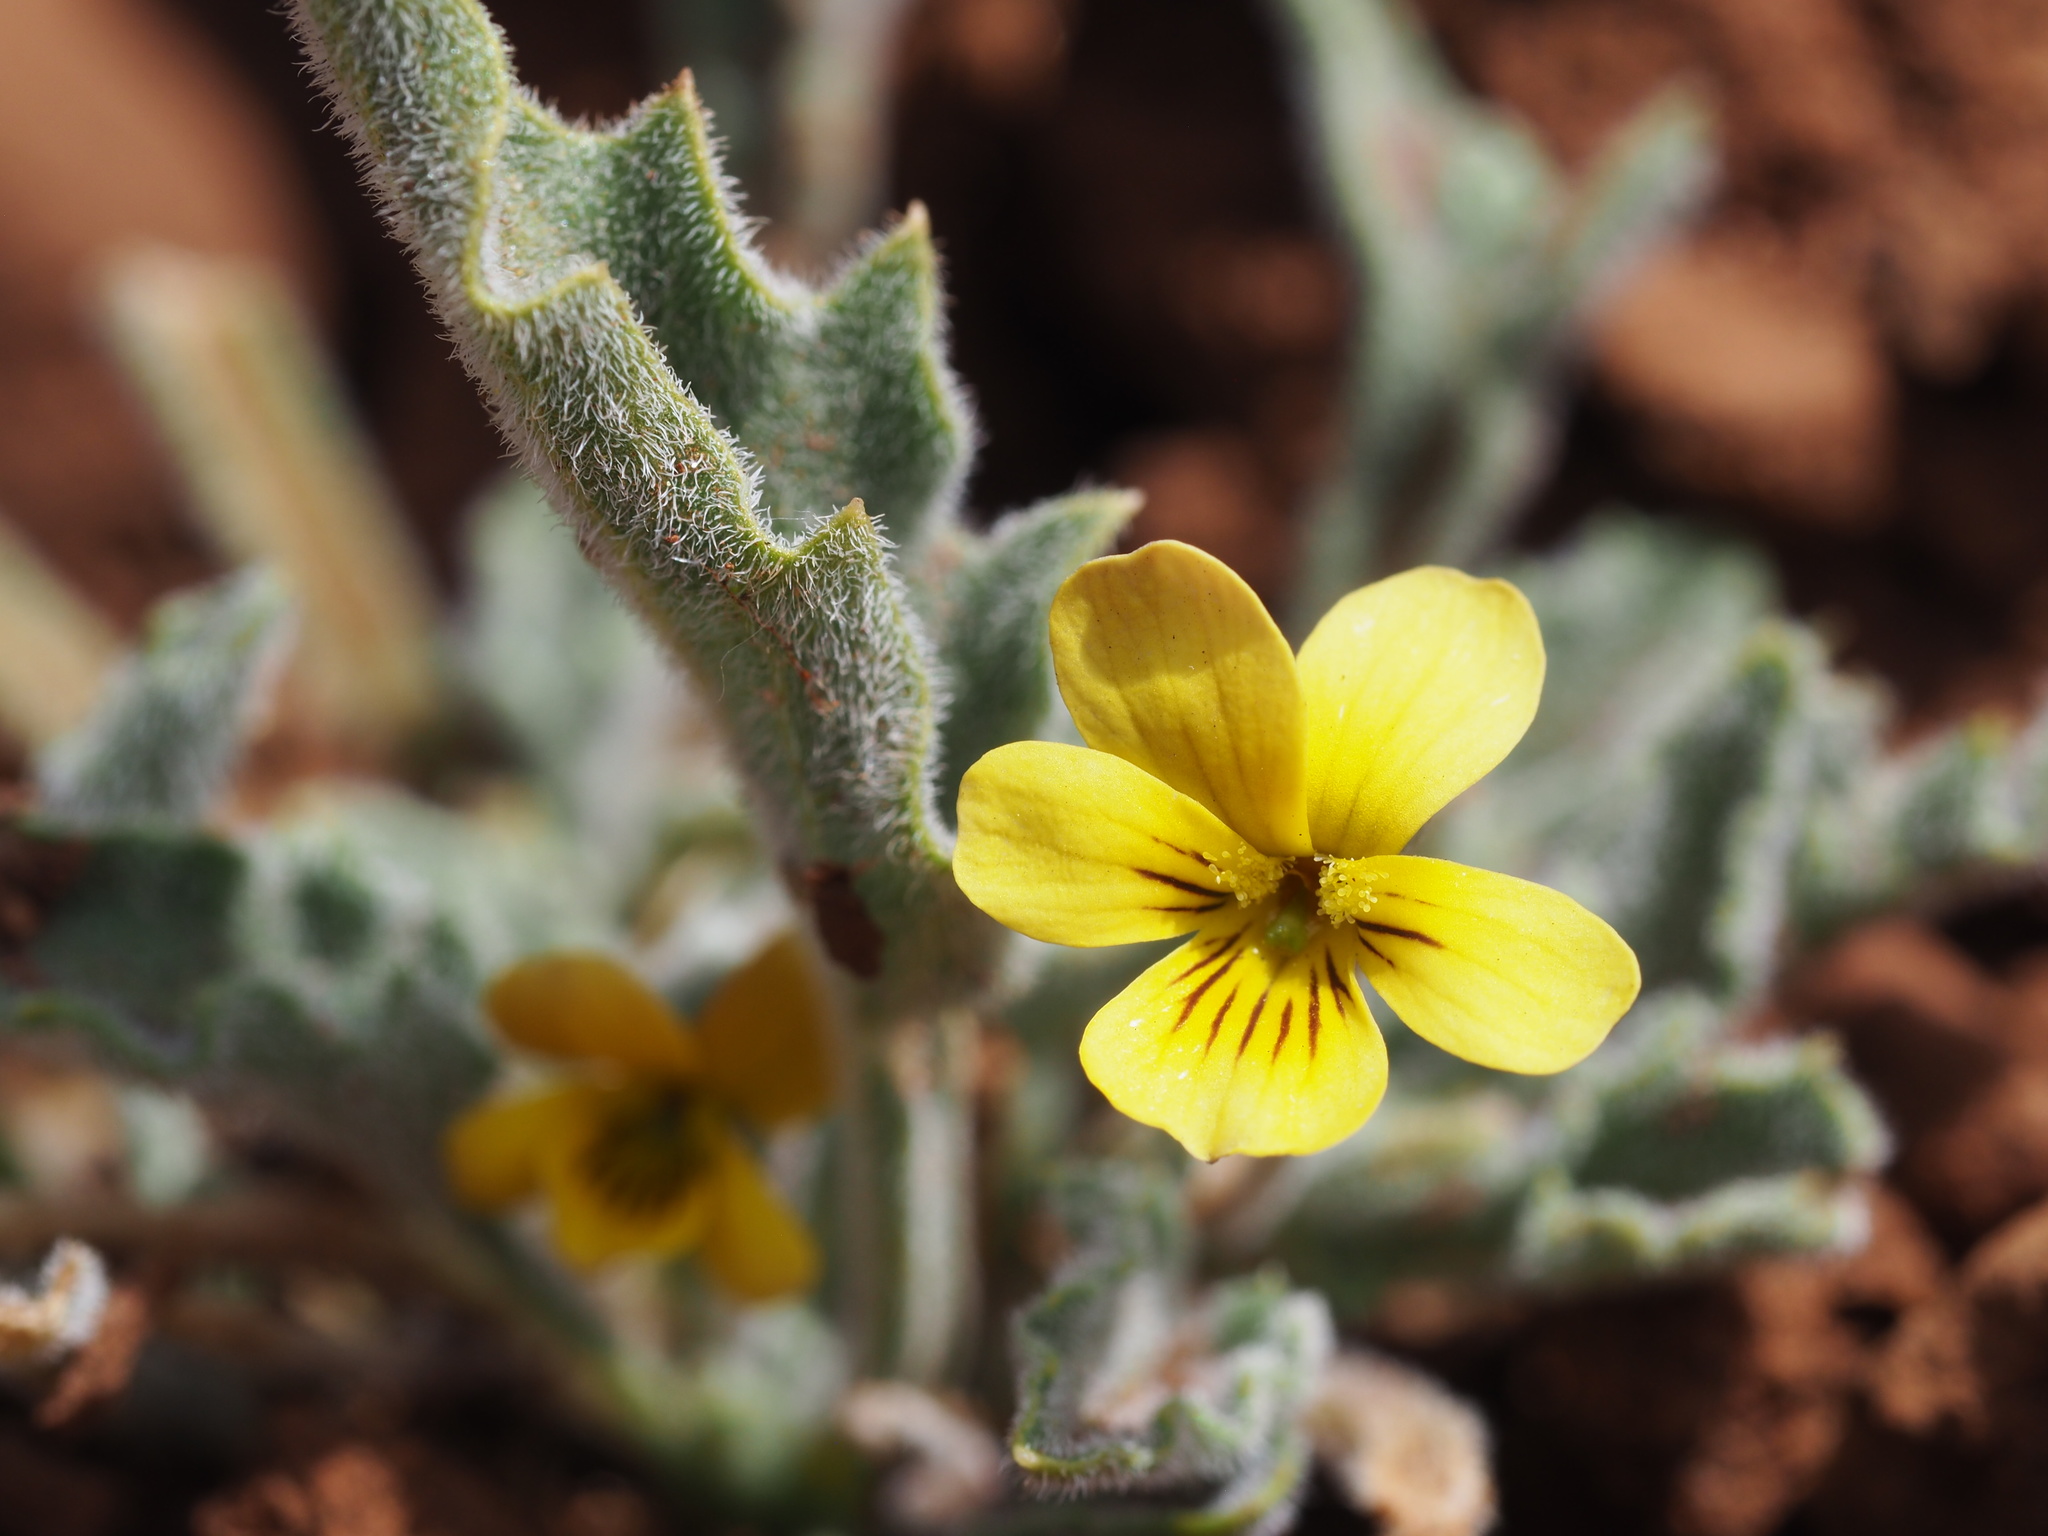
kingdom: Plantae
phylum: Tracheophyta
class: Magnoliopsida
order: Malpighiales
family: Violaceae
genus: Viola
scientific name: Viola pinetorum
